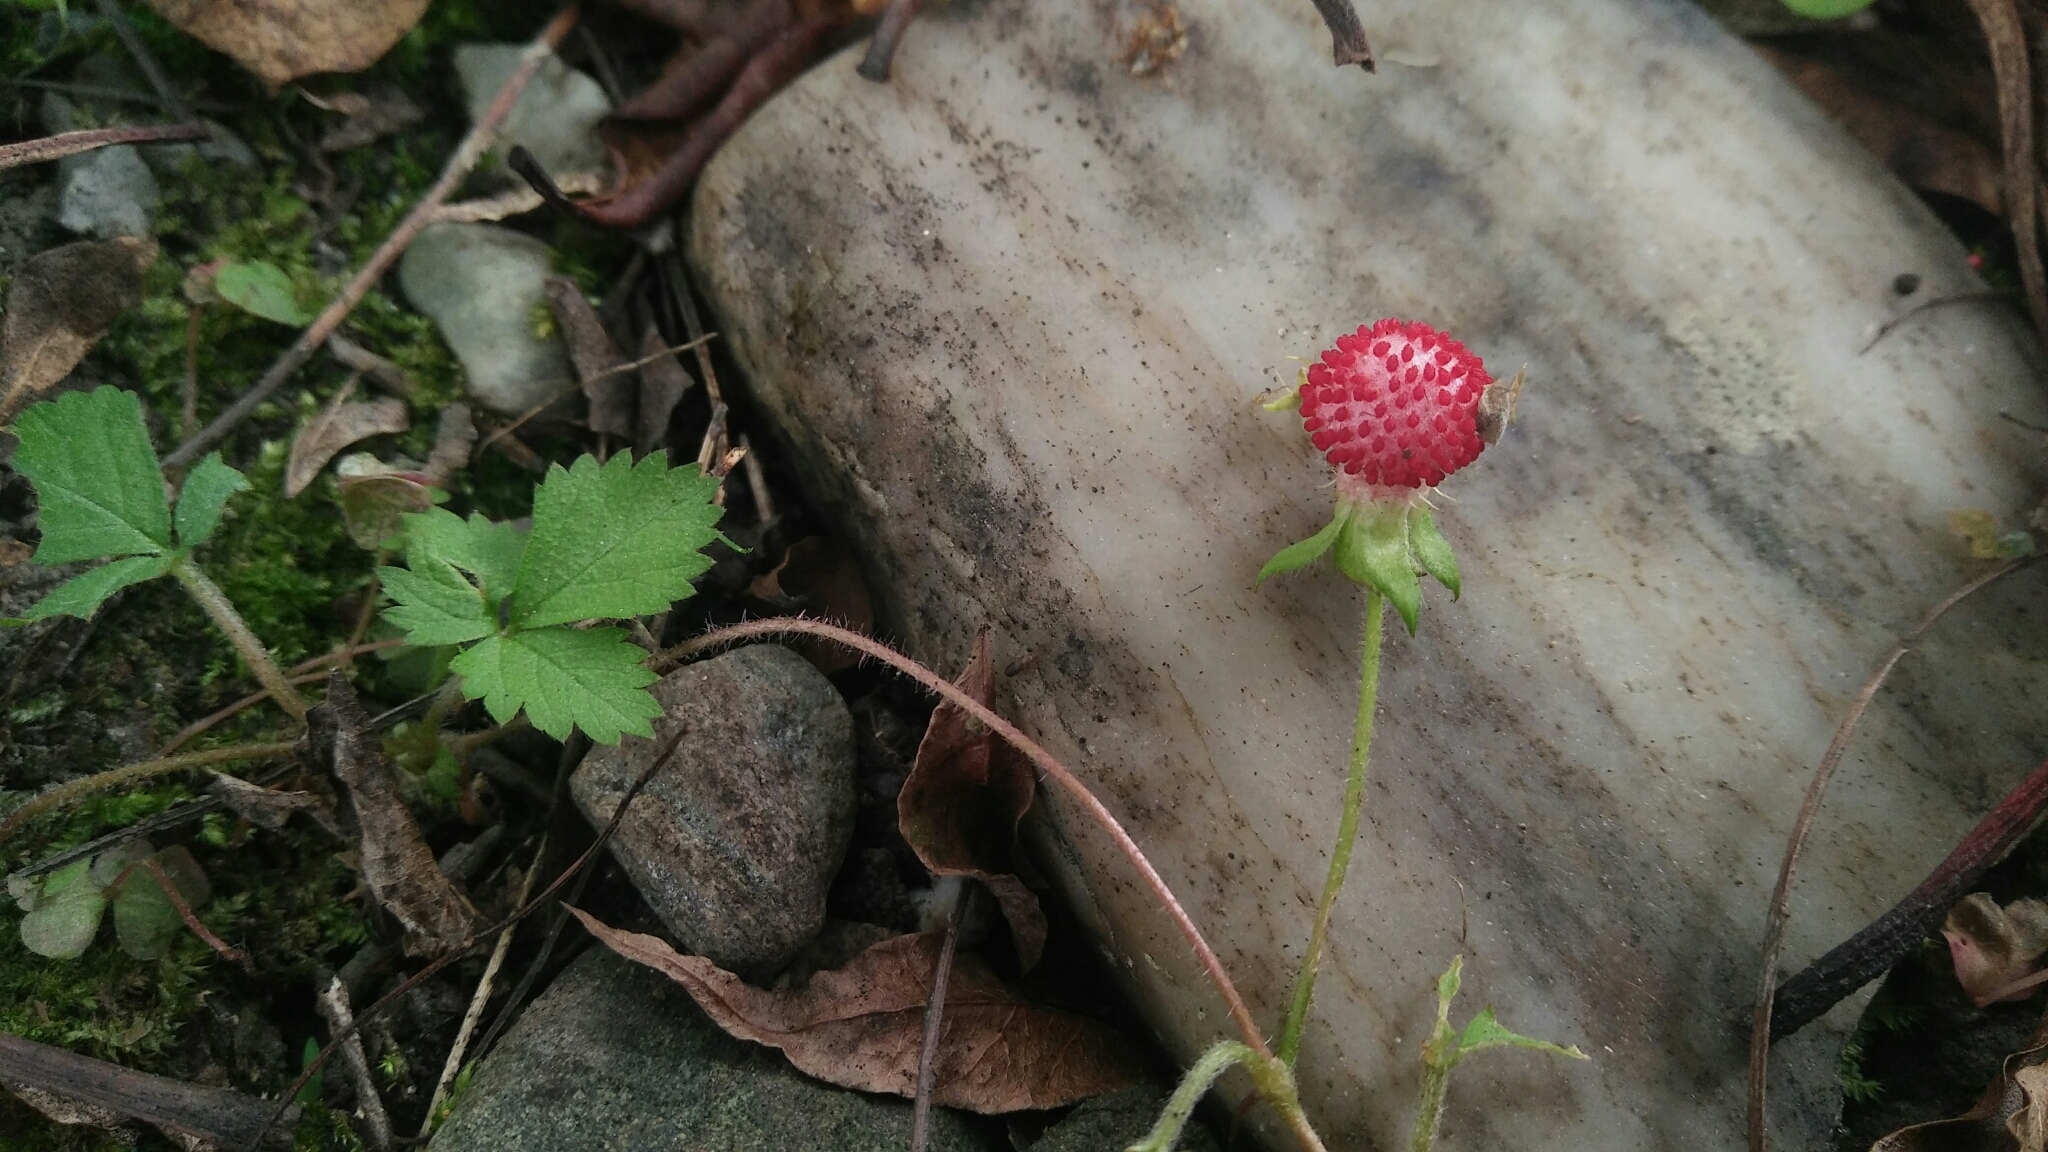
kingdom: Plantae
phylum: Tracheophyta
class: Magnoliopsida
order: Rosales
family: Rosaceae
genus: Potentilla
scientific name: Potentilla wallichiana
